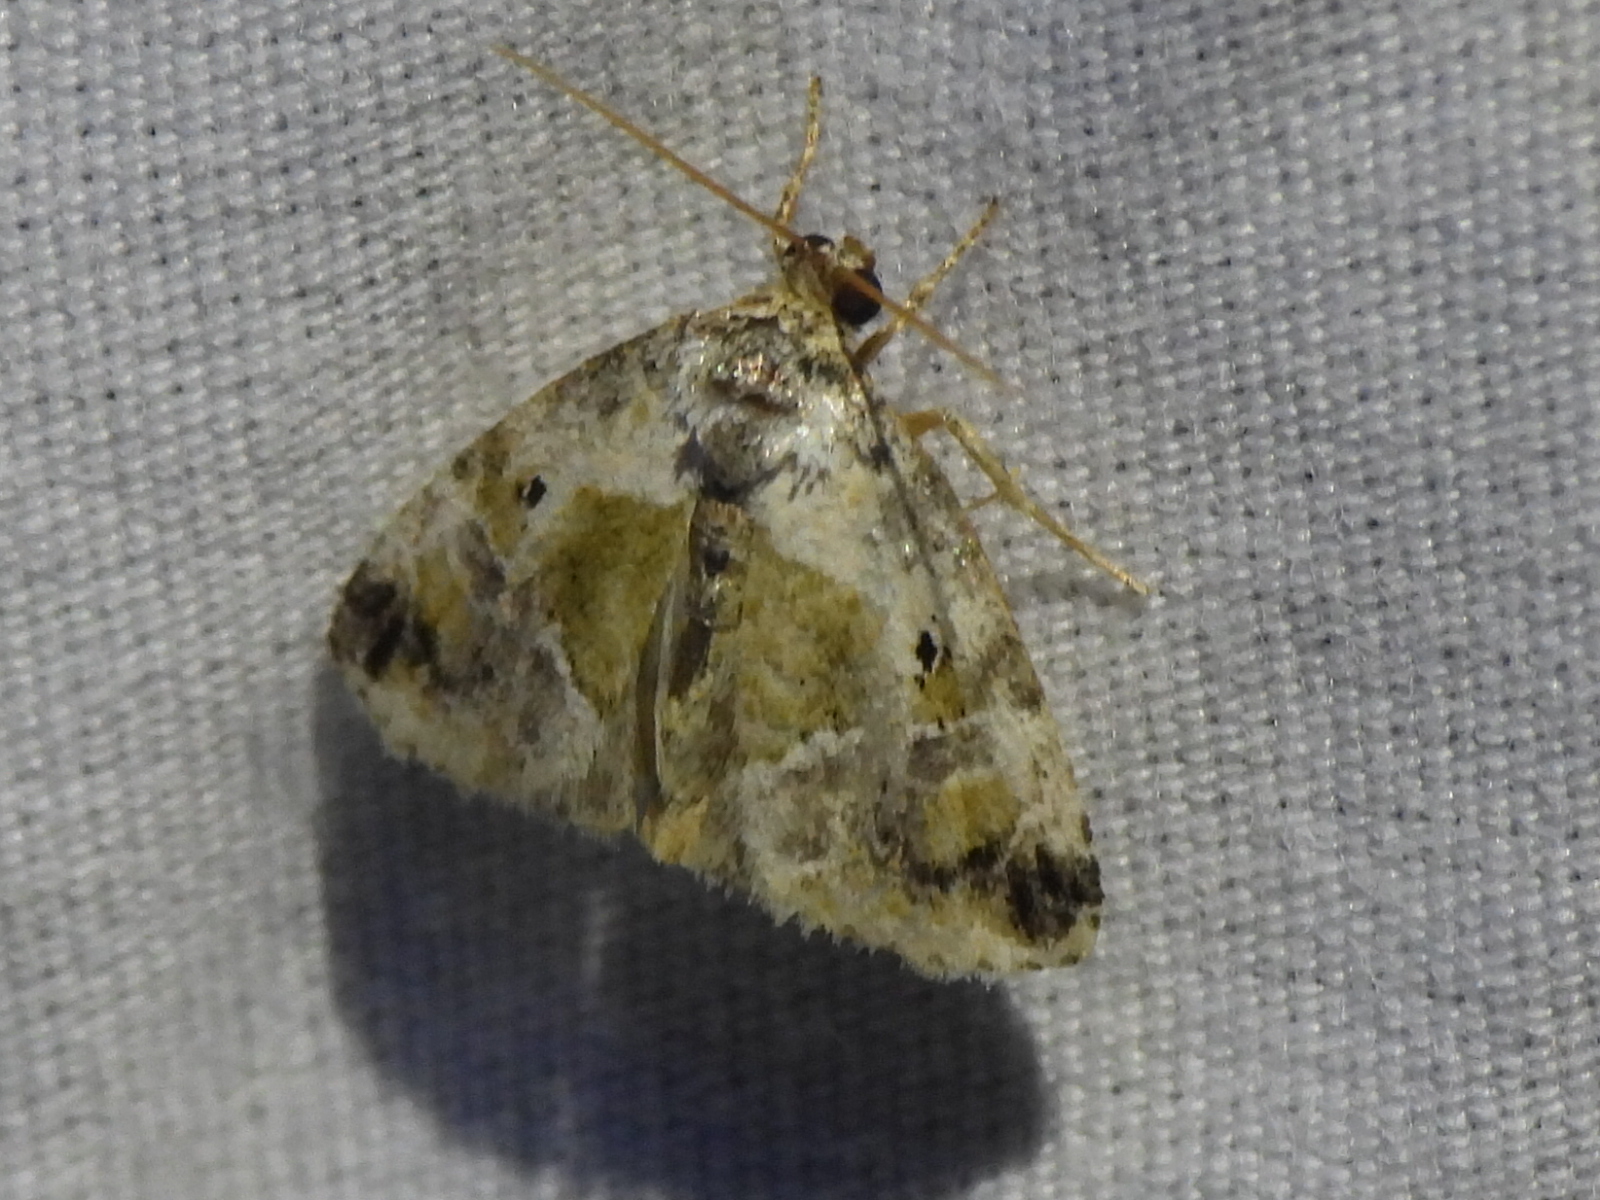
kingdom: Animalia
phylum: Arthropoda
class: Insecta
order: Lepidoptera
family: Noctuidae
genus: Maliattha
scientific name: Maliattha synochitis
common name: Black-dotted glyph
